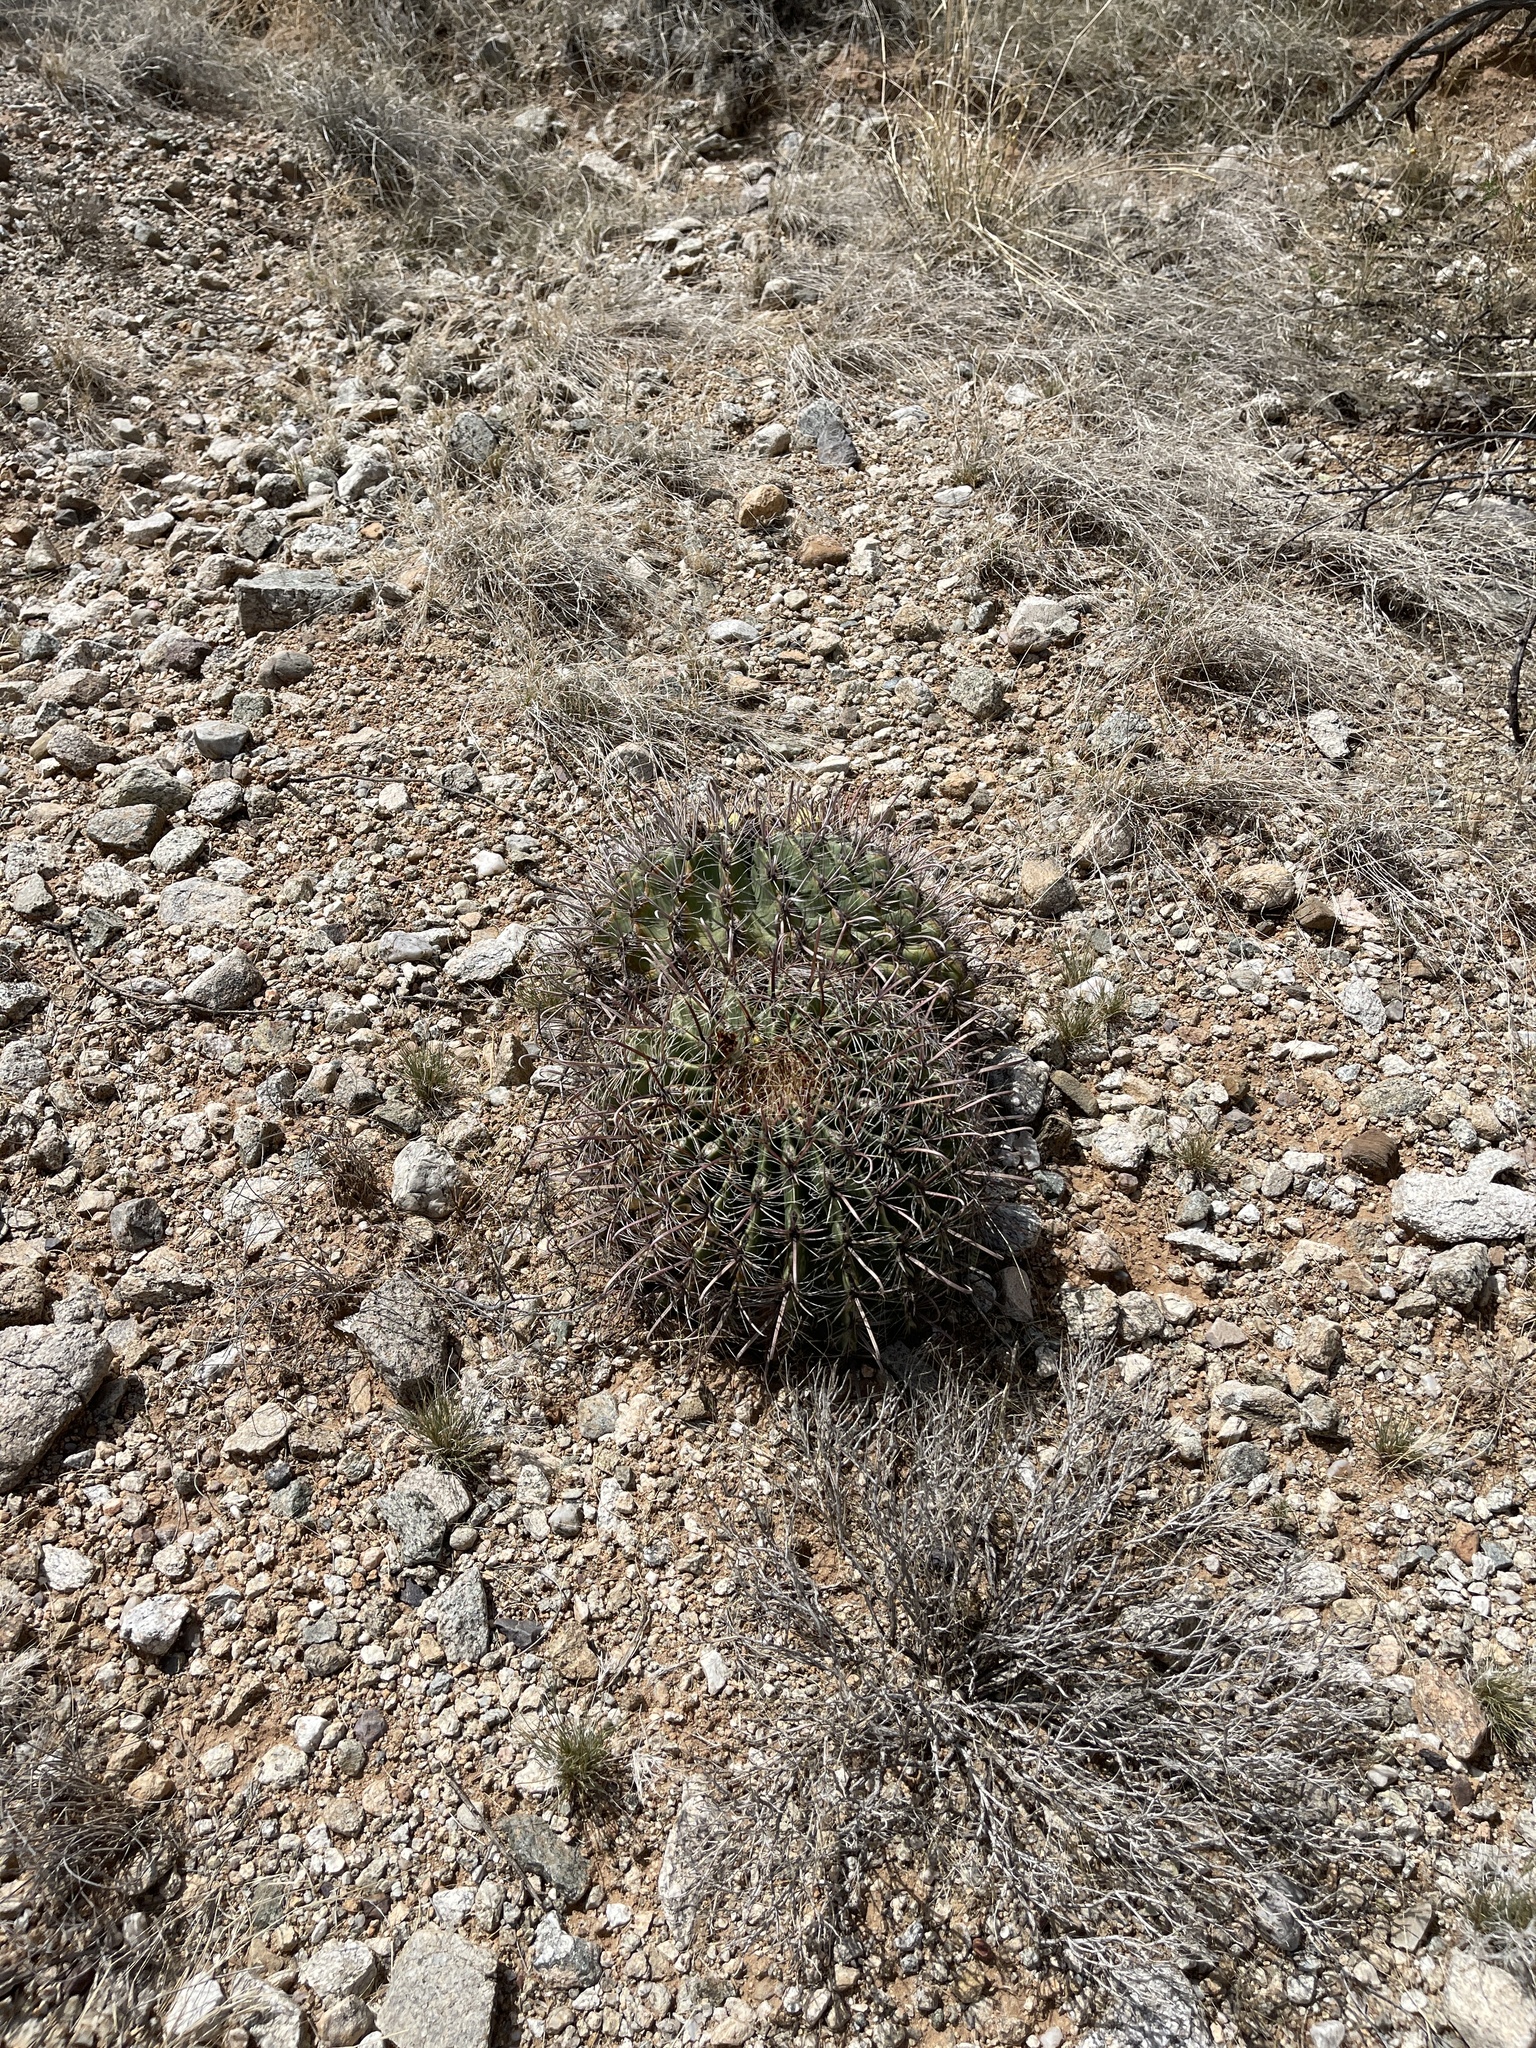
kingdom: Plantae
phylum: Tracheophyta
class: Magnoliopsida
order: Caryophyllales
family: Cactaceae
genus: Ferocactus
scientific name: Ferocactus wislizeni
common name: Candy barrel cactus
